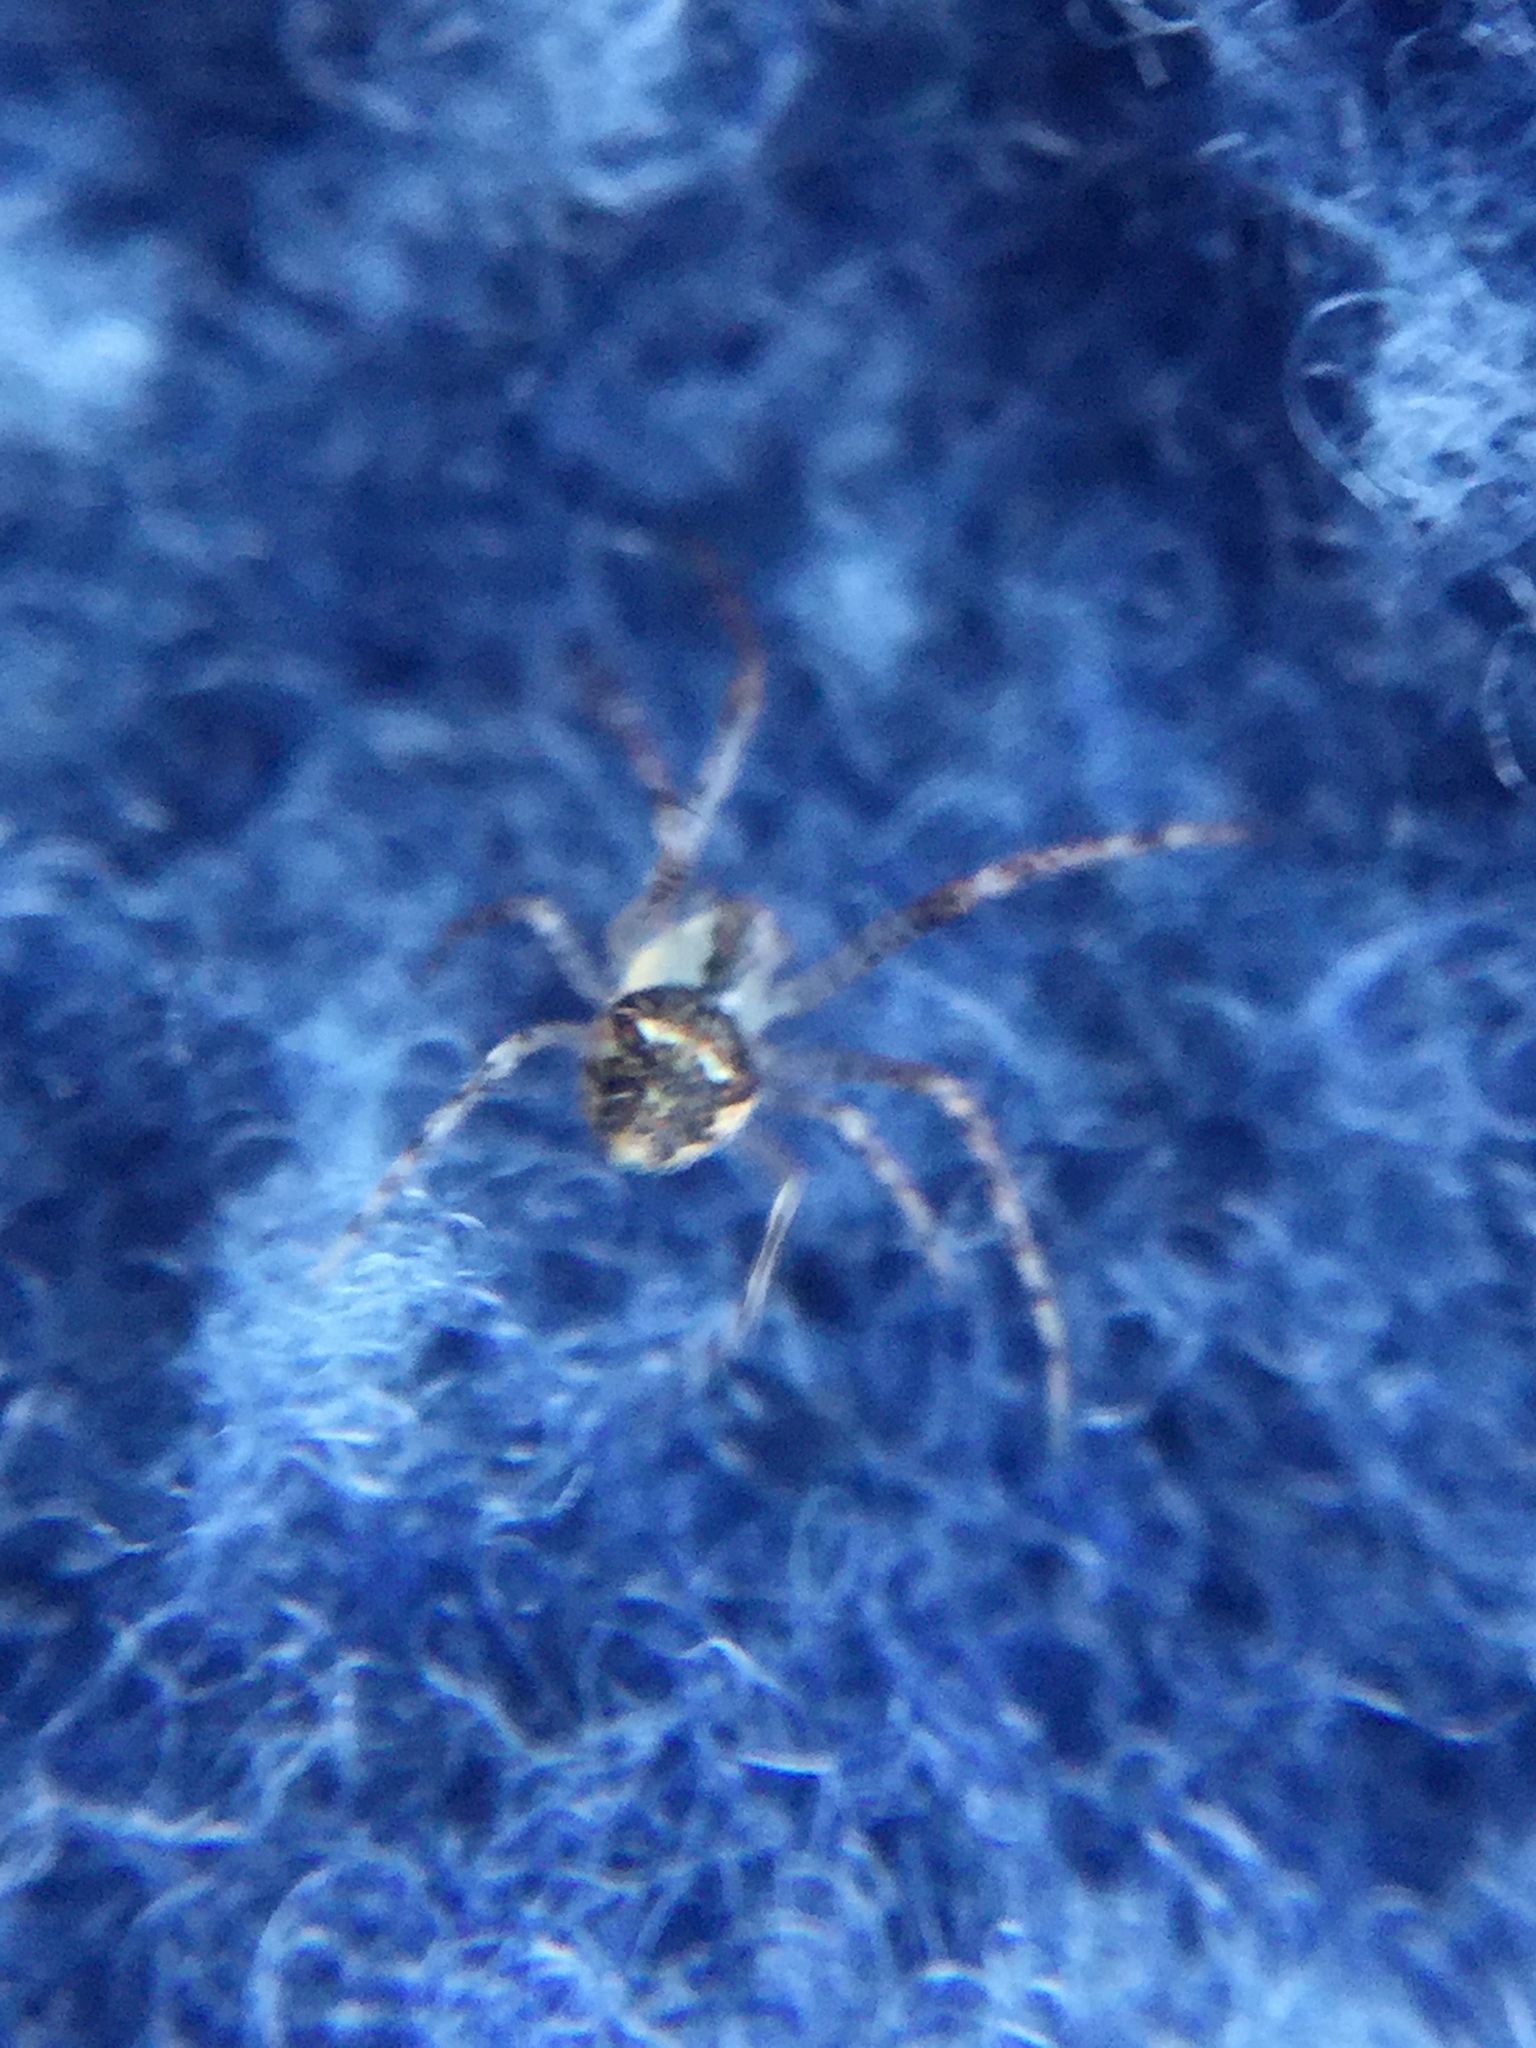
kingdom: Animalia
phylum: Arthropoda
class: Arachnida
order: Araneae
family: Mimetidae
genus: Mimetus
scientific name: Mimetus puritanus
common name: Common pirate spider
